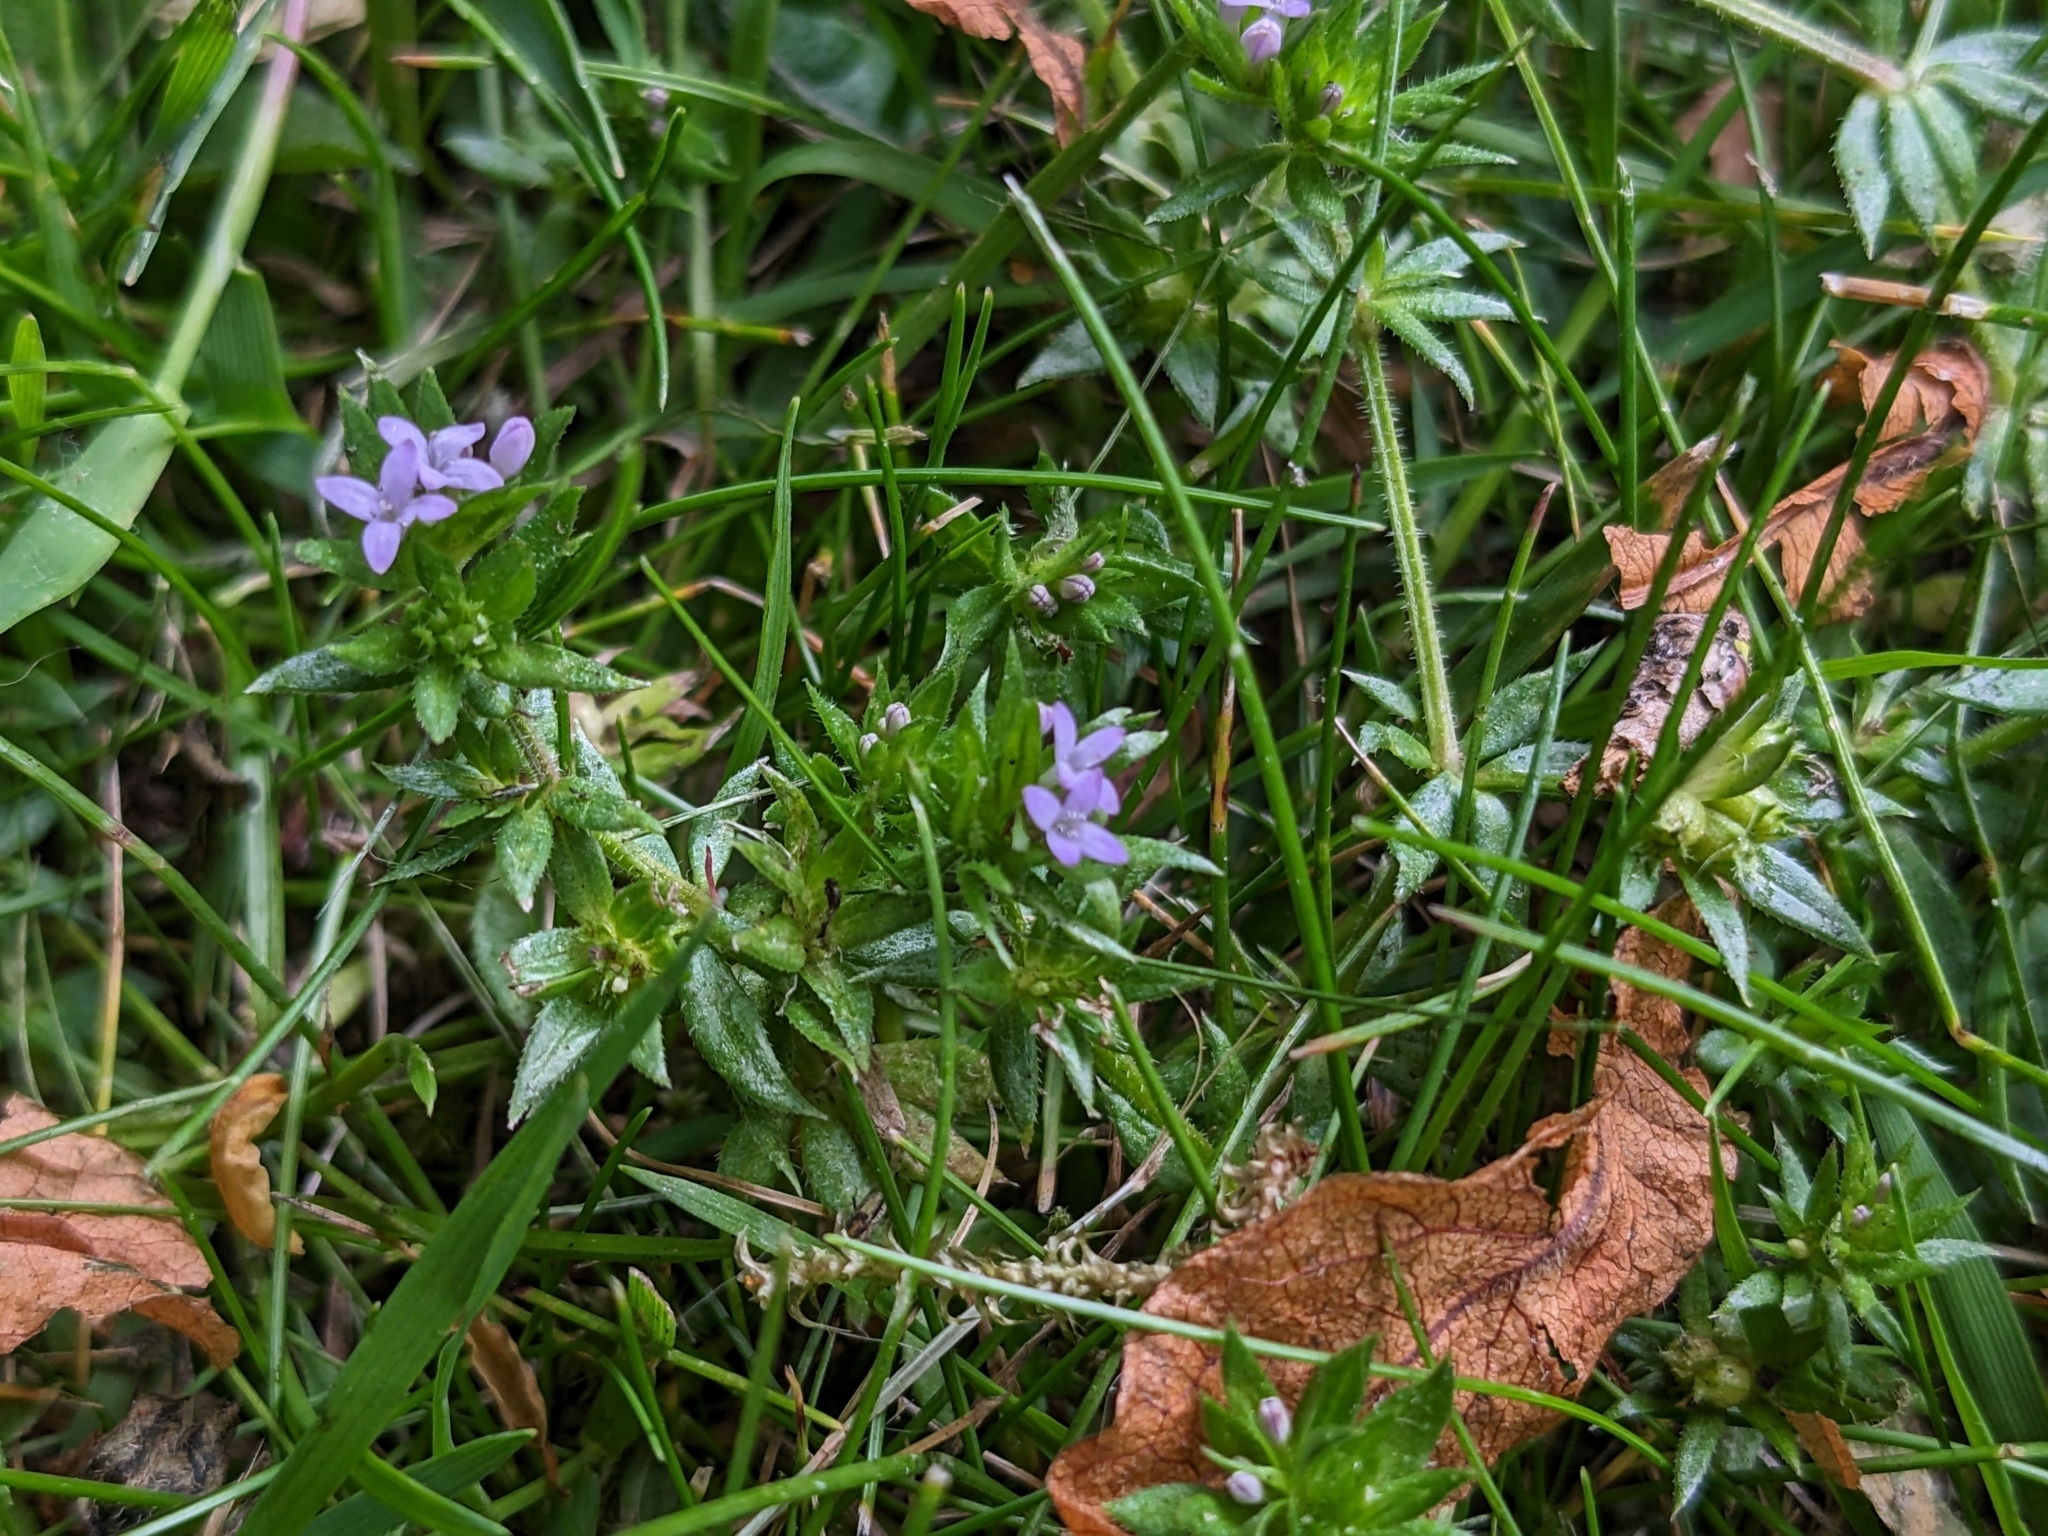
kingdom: Plantae
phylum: Tracheophyta
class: Magnoliopsida
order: Gentianales
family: Rubiaceae
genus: Sherardia
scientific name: Sherardia arvensis
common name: Field madder
